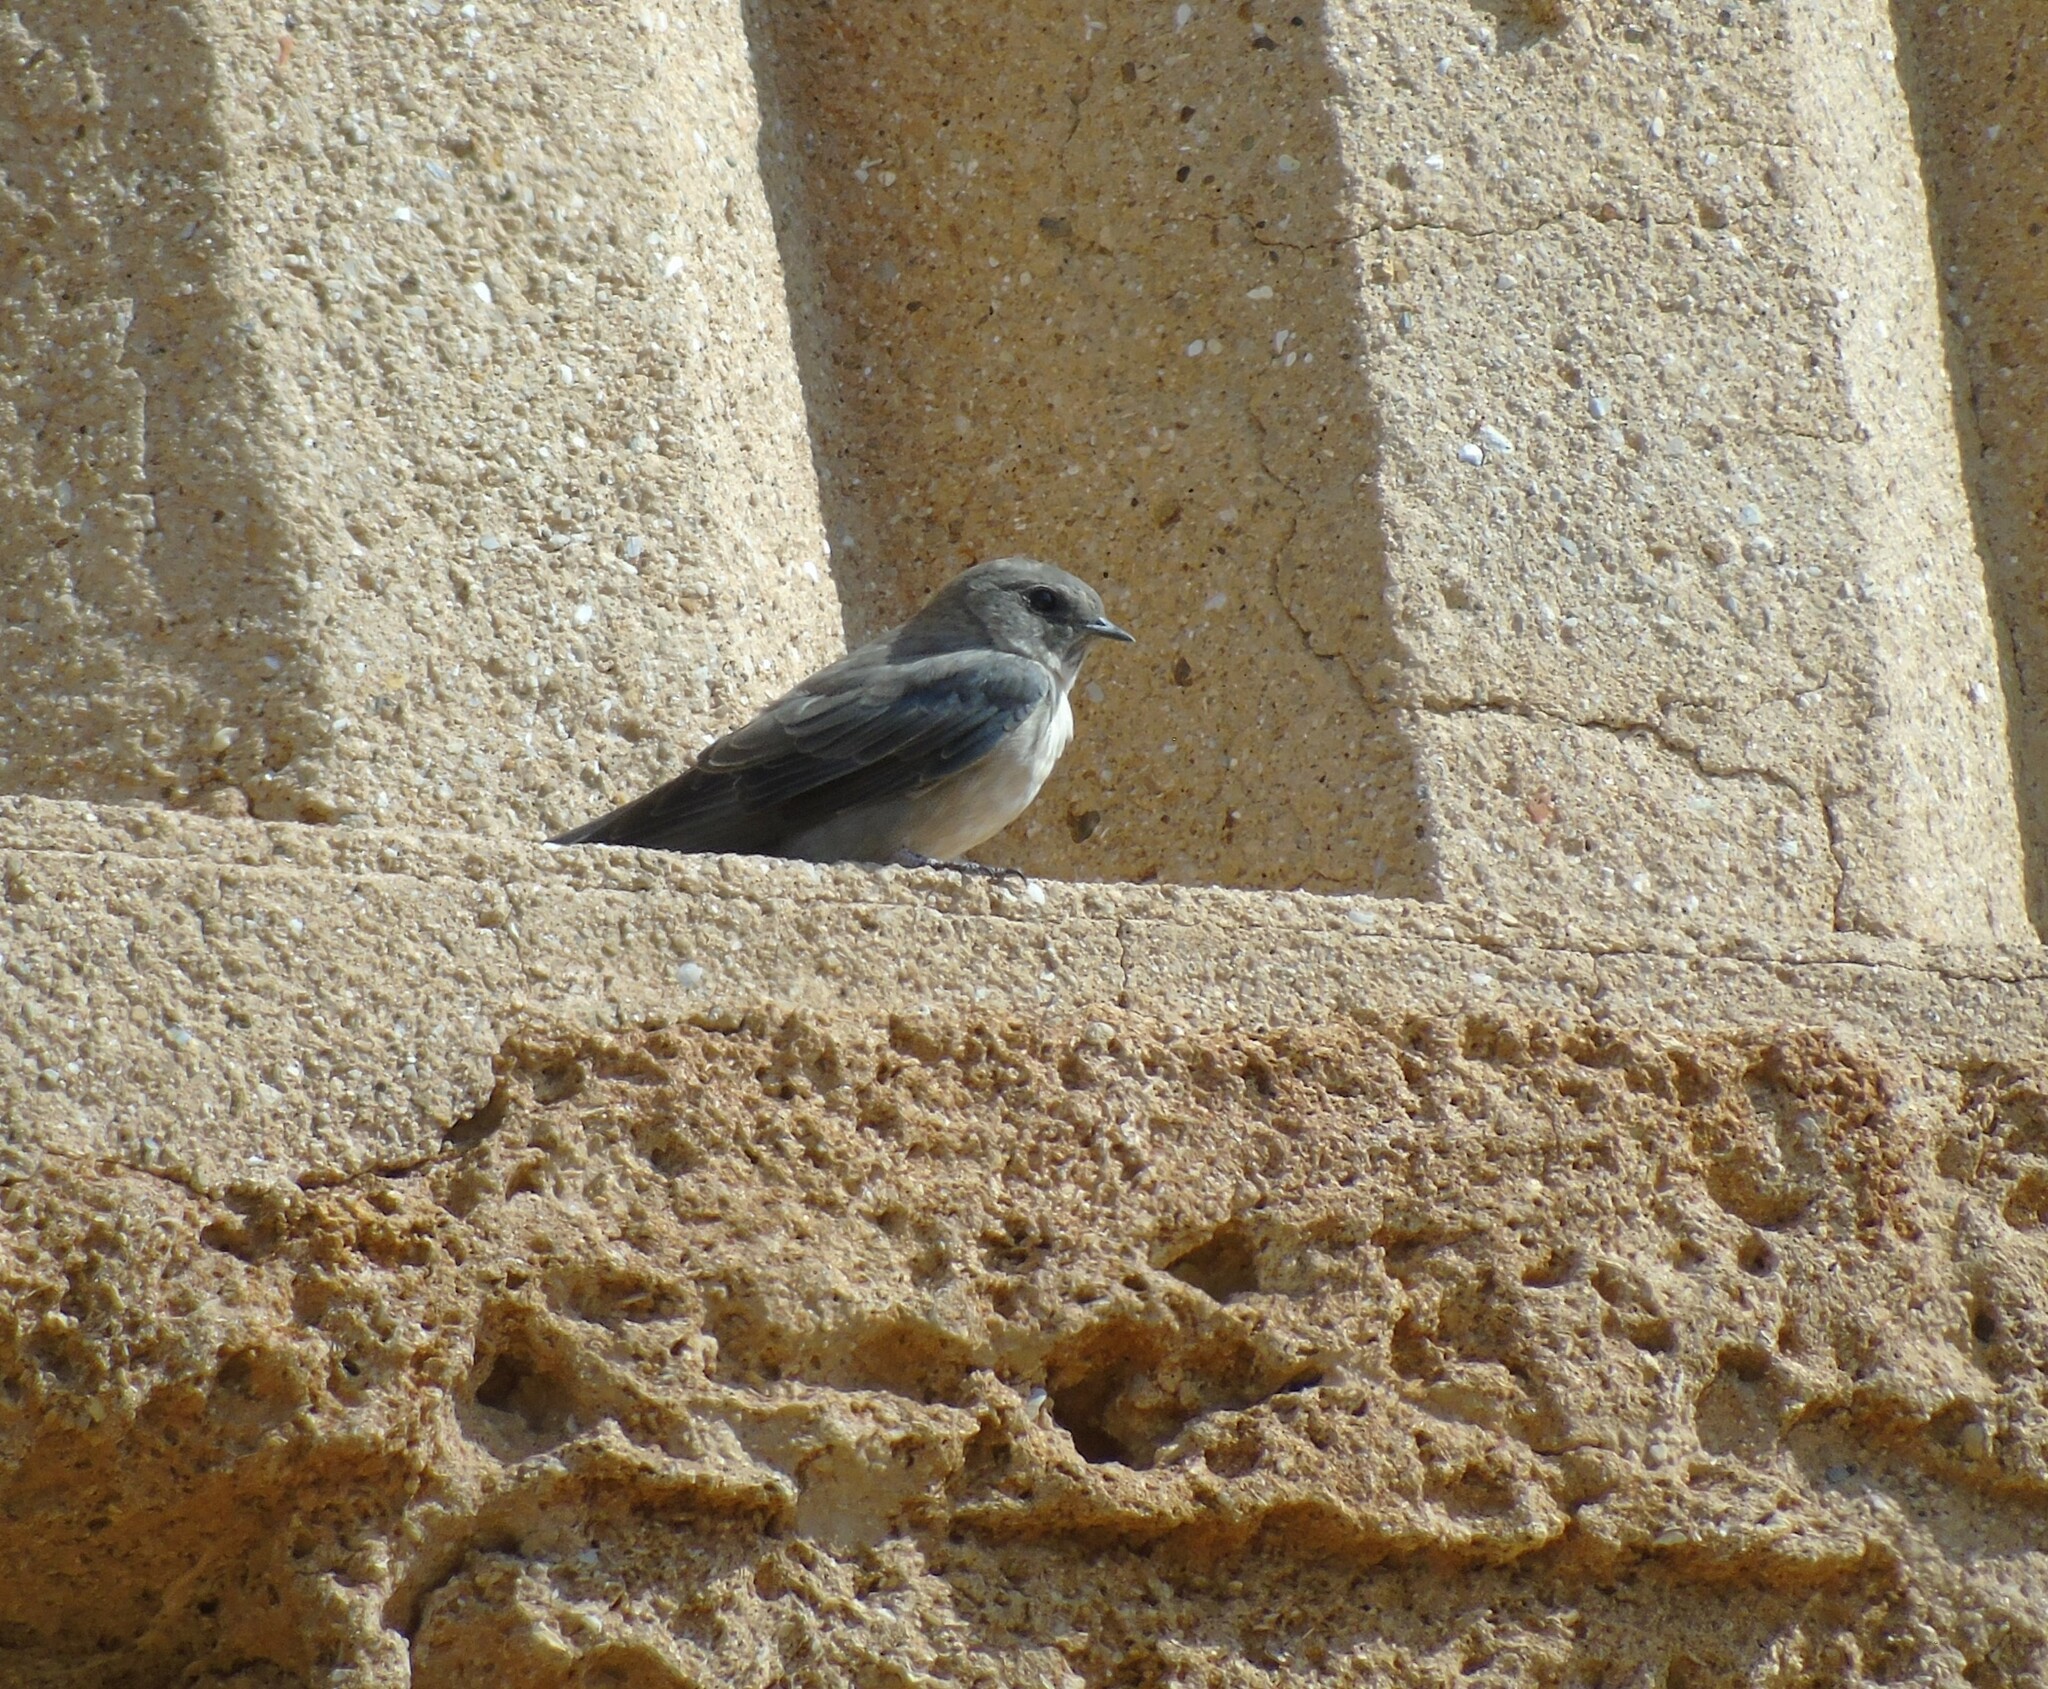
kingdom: Animalia
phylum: Chordata
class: Aves
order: Passeriformes
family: Hirundinidae
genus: Ptyonoprogne
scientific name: Ptyonoprogne rupestris
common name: Eurasian crag martin
